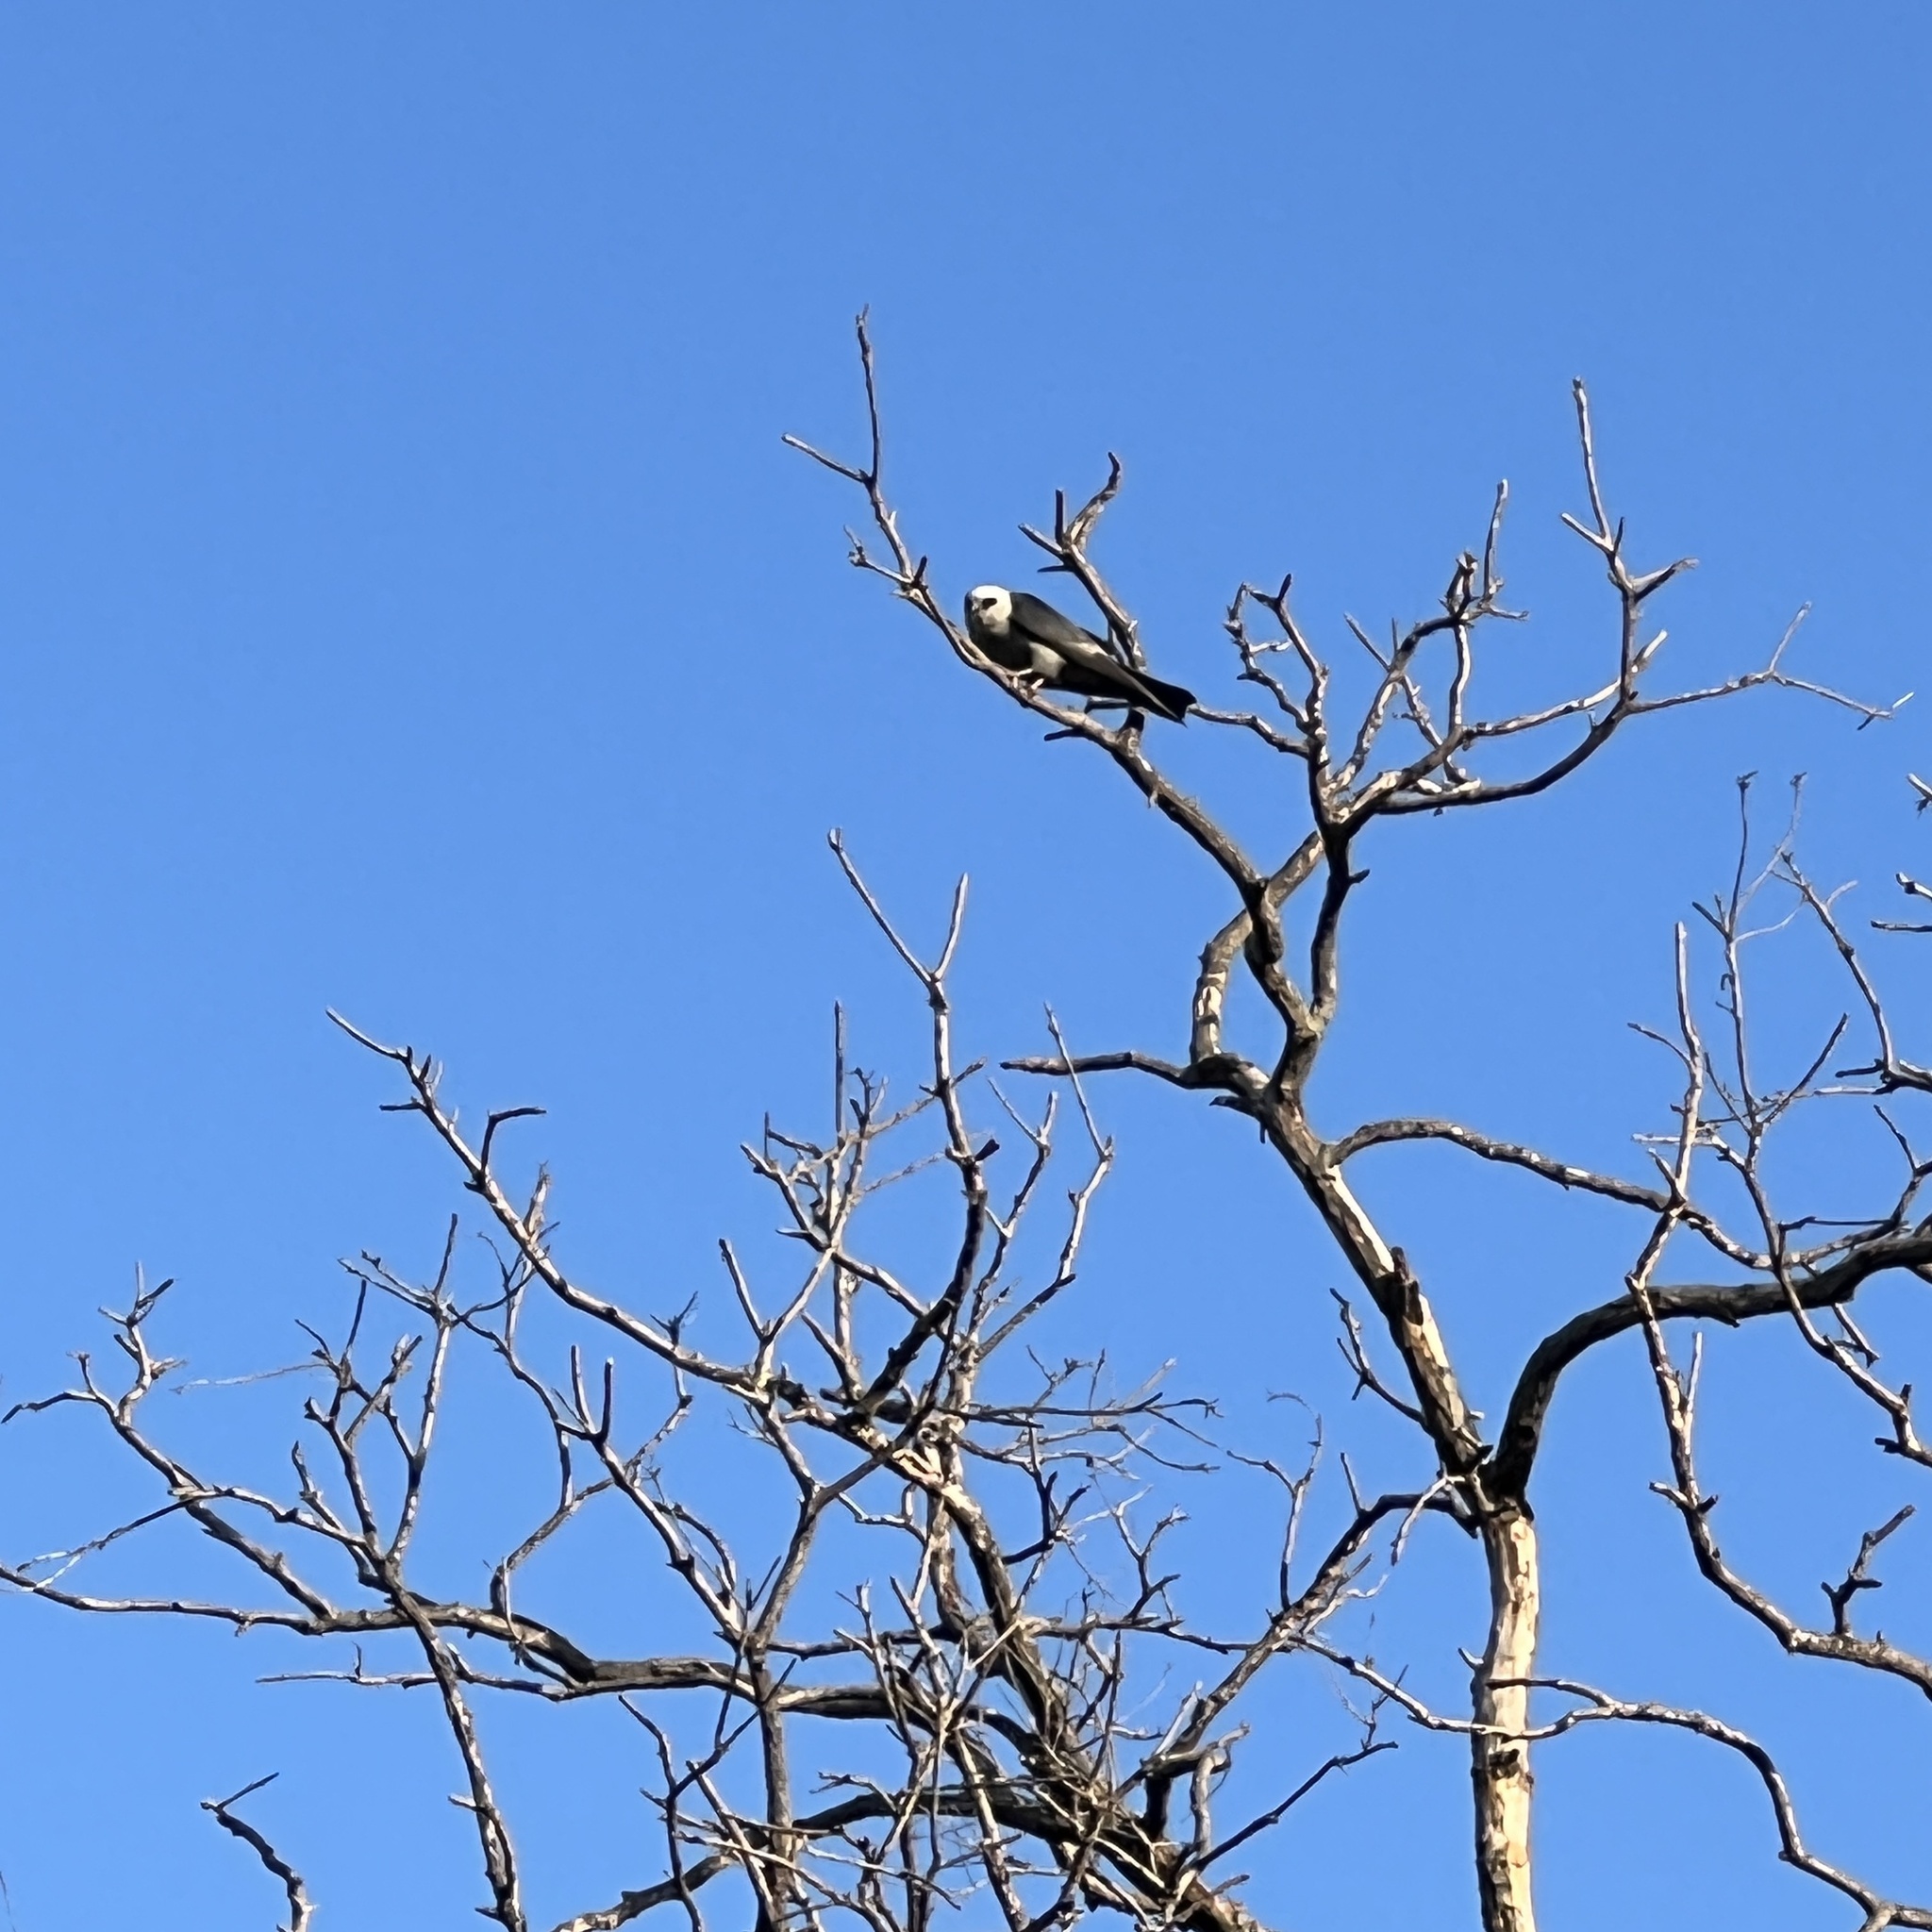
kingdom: Animalia
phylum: Chordata
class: Aves
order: Accipitriformes
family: Accipitridae
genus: Ictinia
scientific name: Ictinia mississippiensis
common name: Mississippi kite
